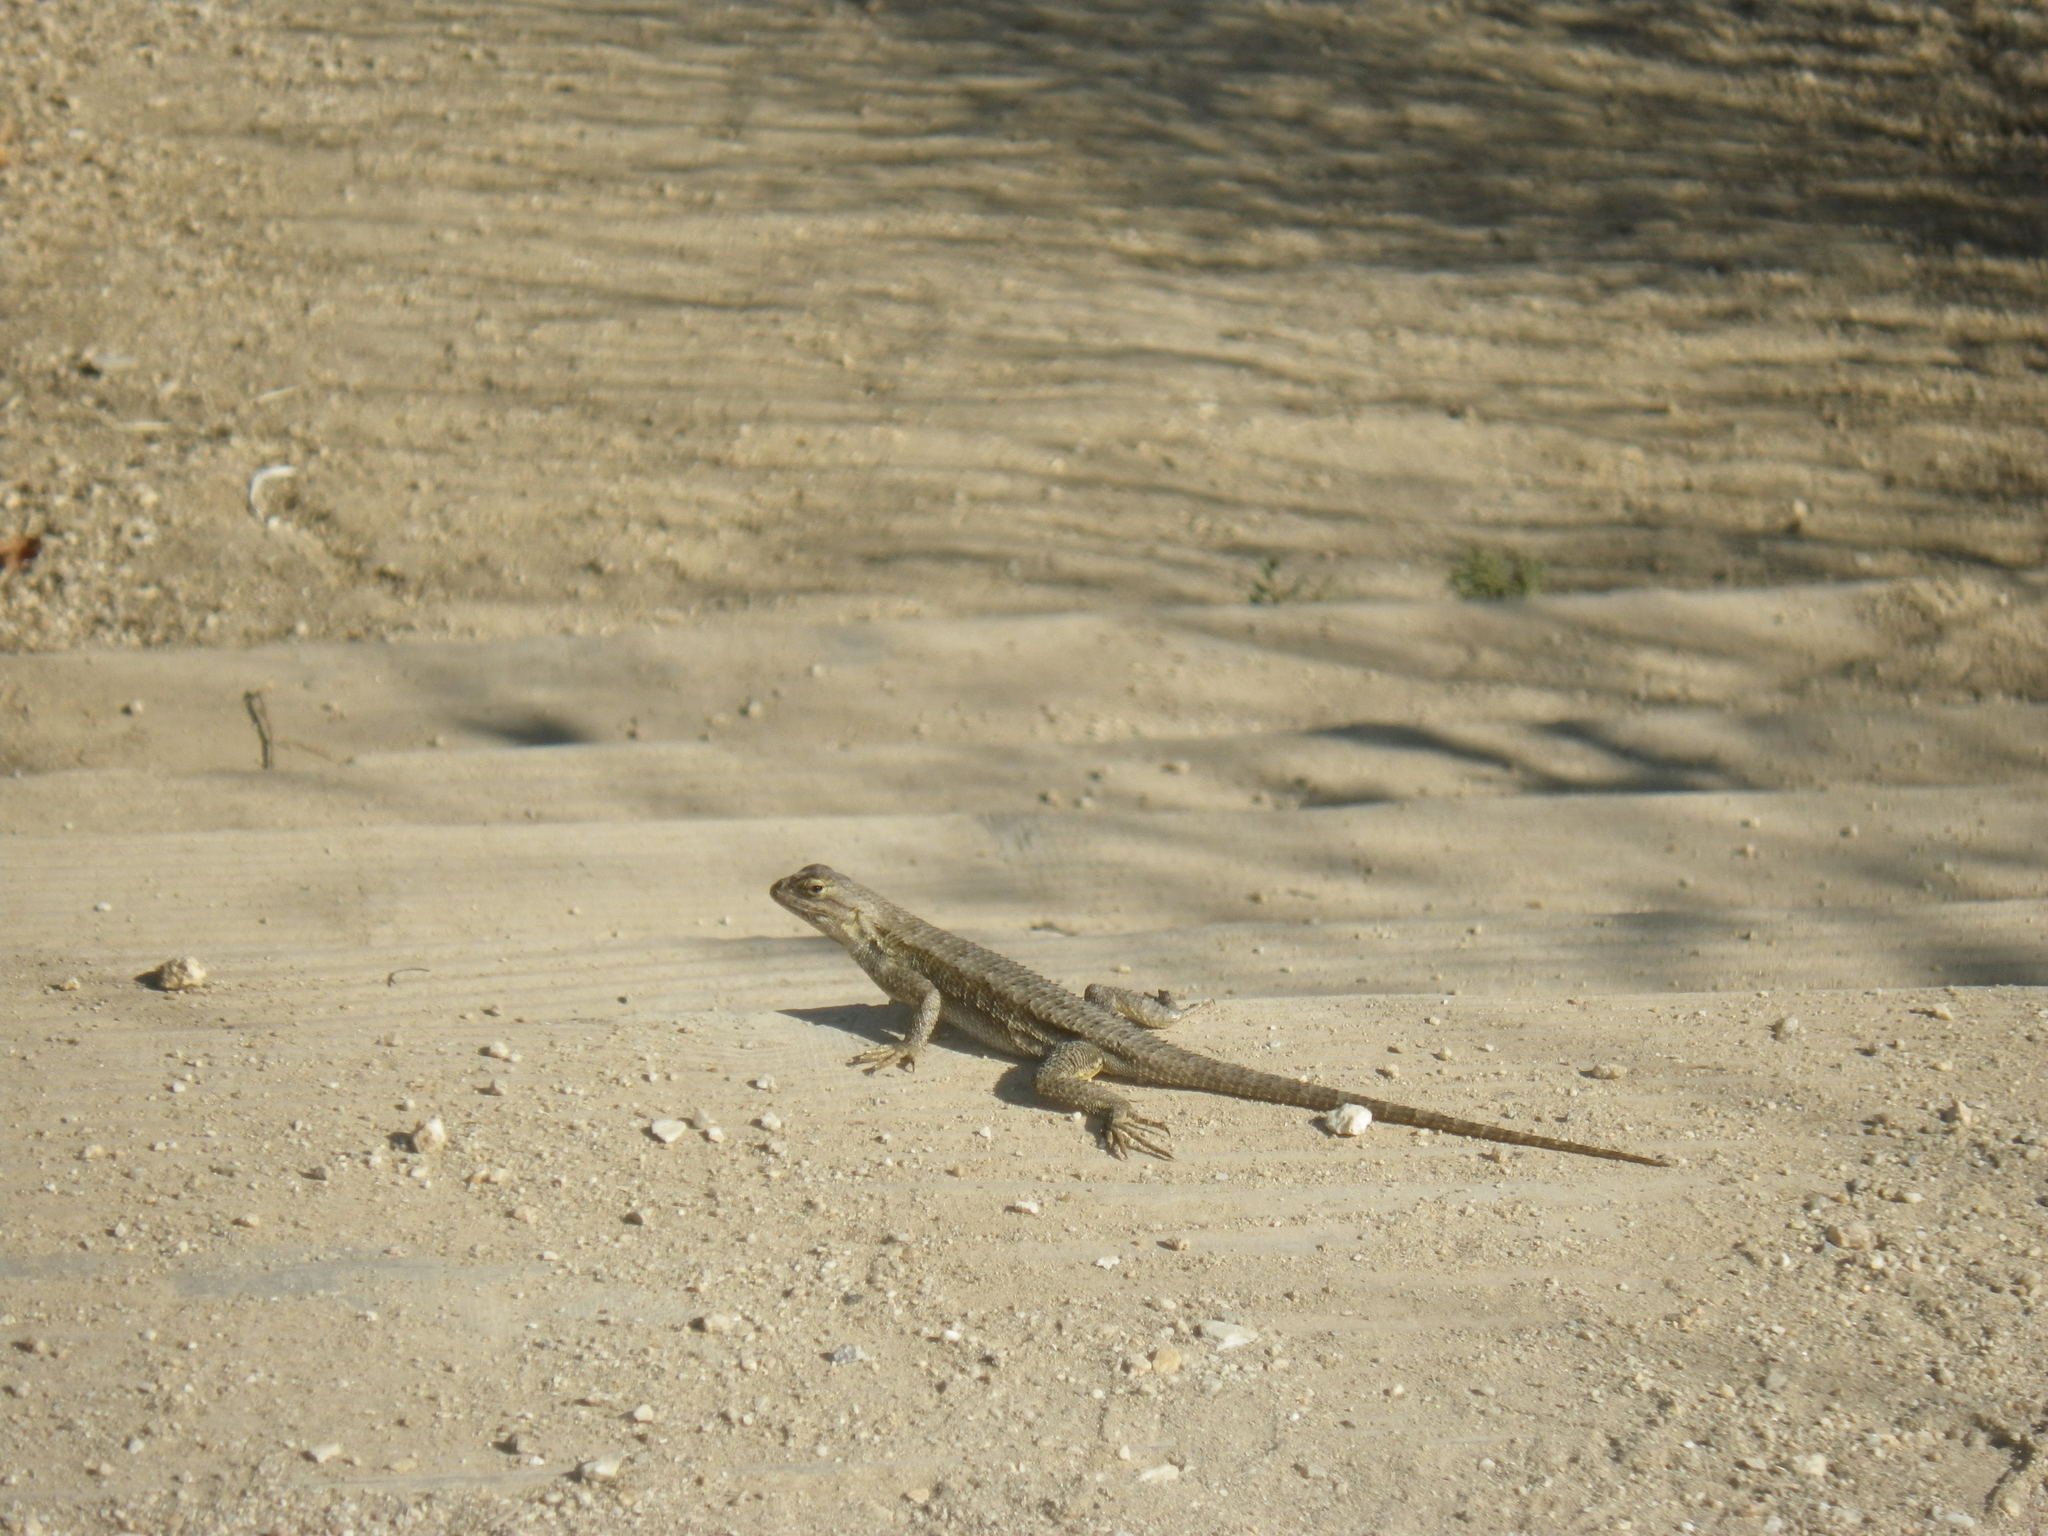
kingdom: Animalia
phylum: Chordata
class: Squamata
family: Phrynosomatidae
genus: Sceloporus
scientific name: Sceloporus occidentalis
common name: Western fence lizard
